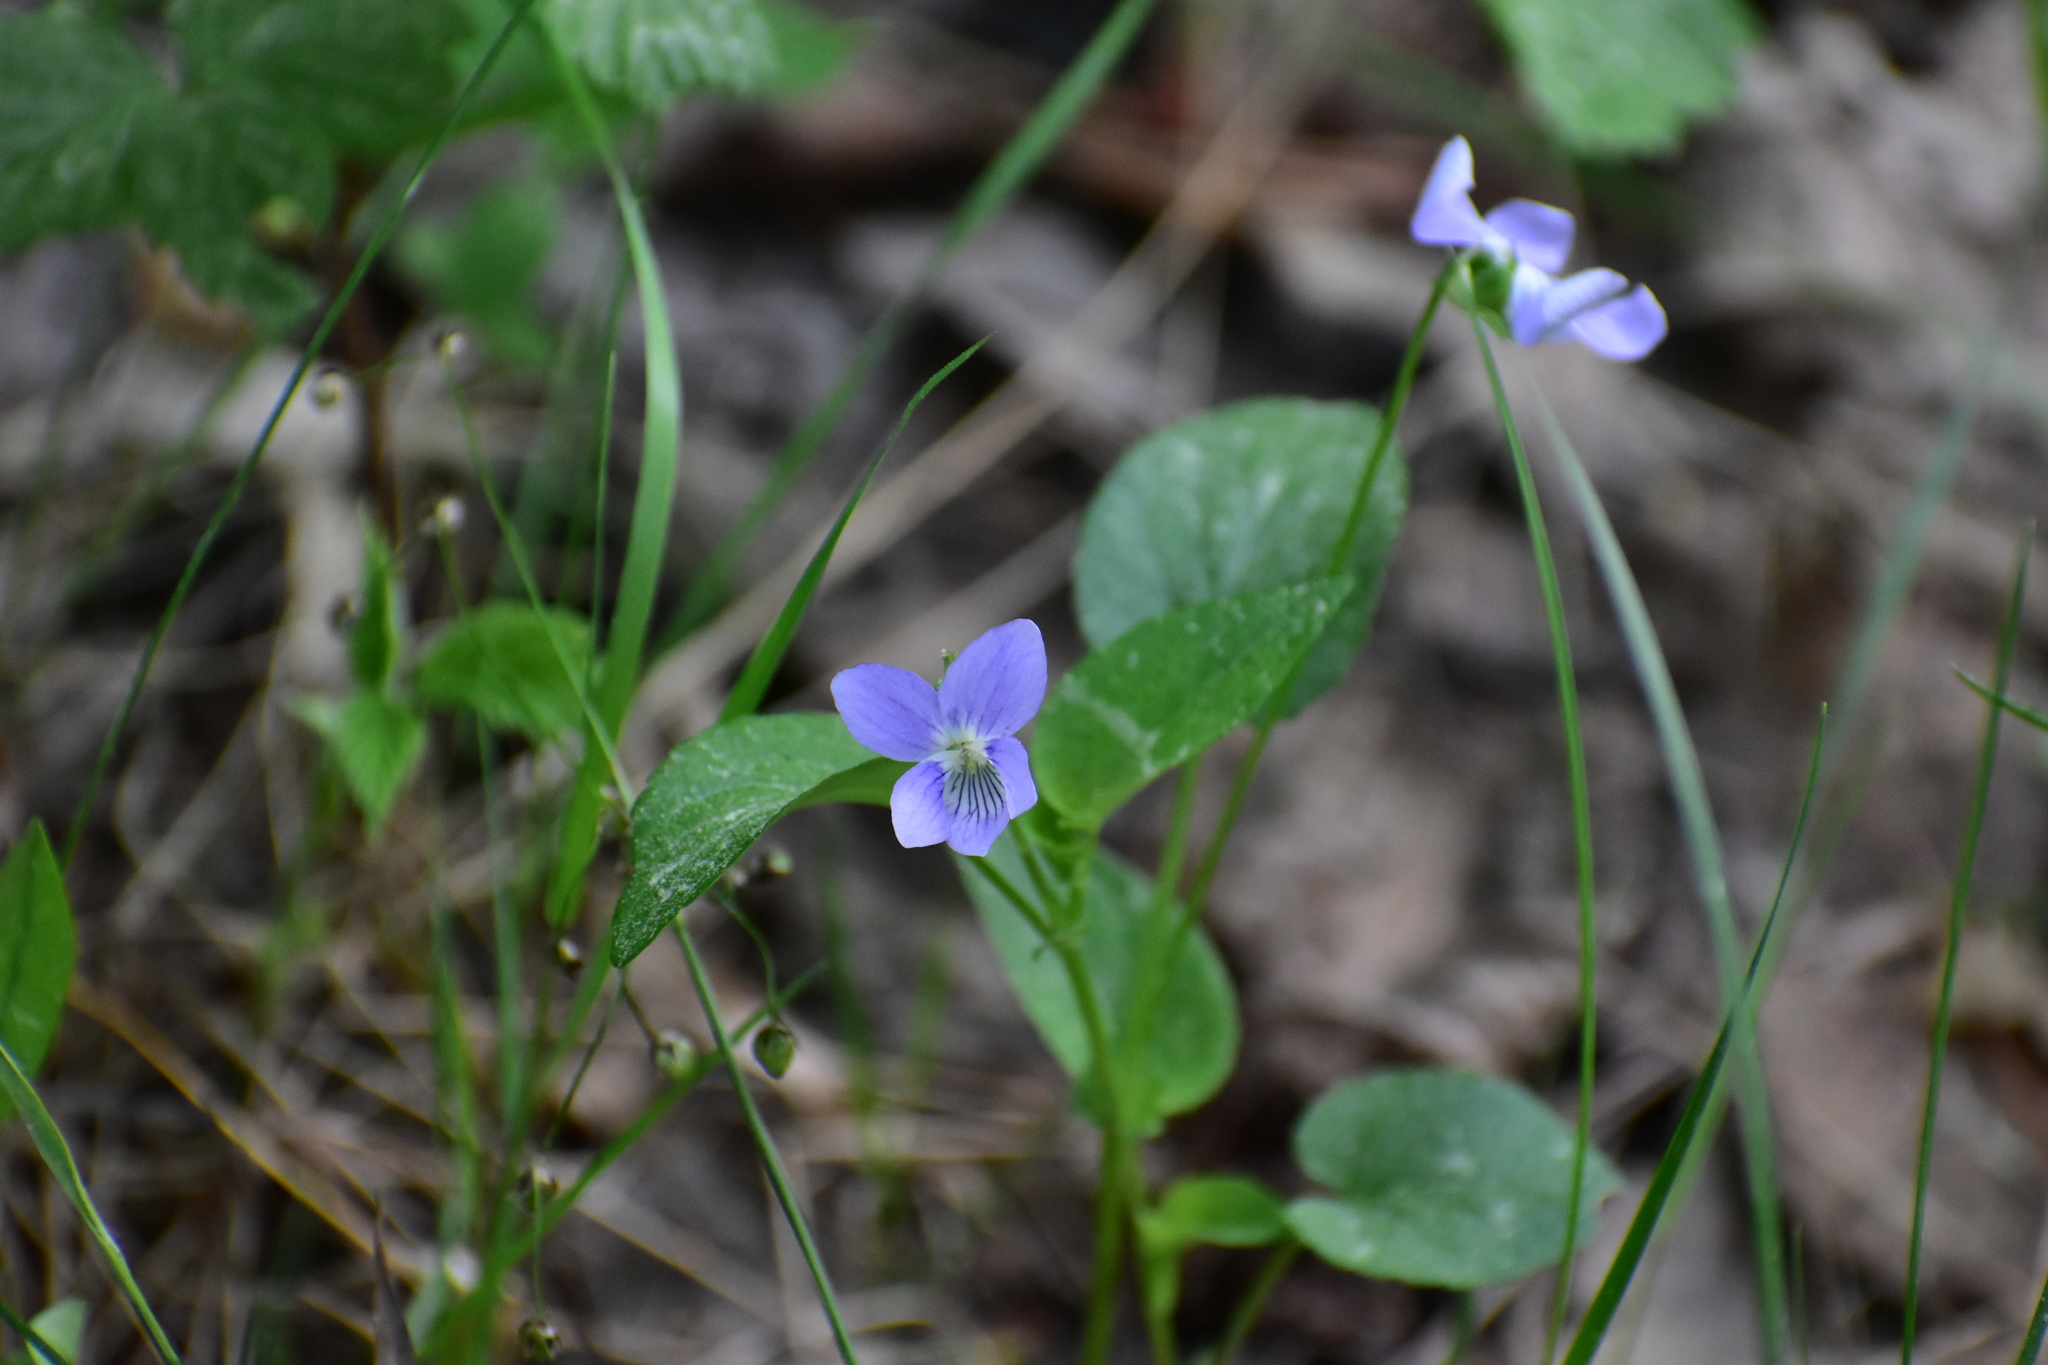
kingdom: Plantae
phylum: Tracheophyta
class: Magnoliopsida
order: Malpighiales
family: Violaceae
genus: Viola
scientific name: Viola canina
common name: Heath dog-violet
